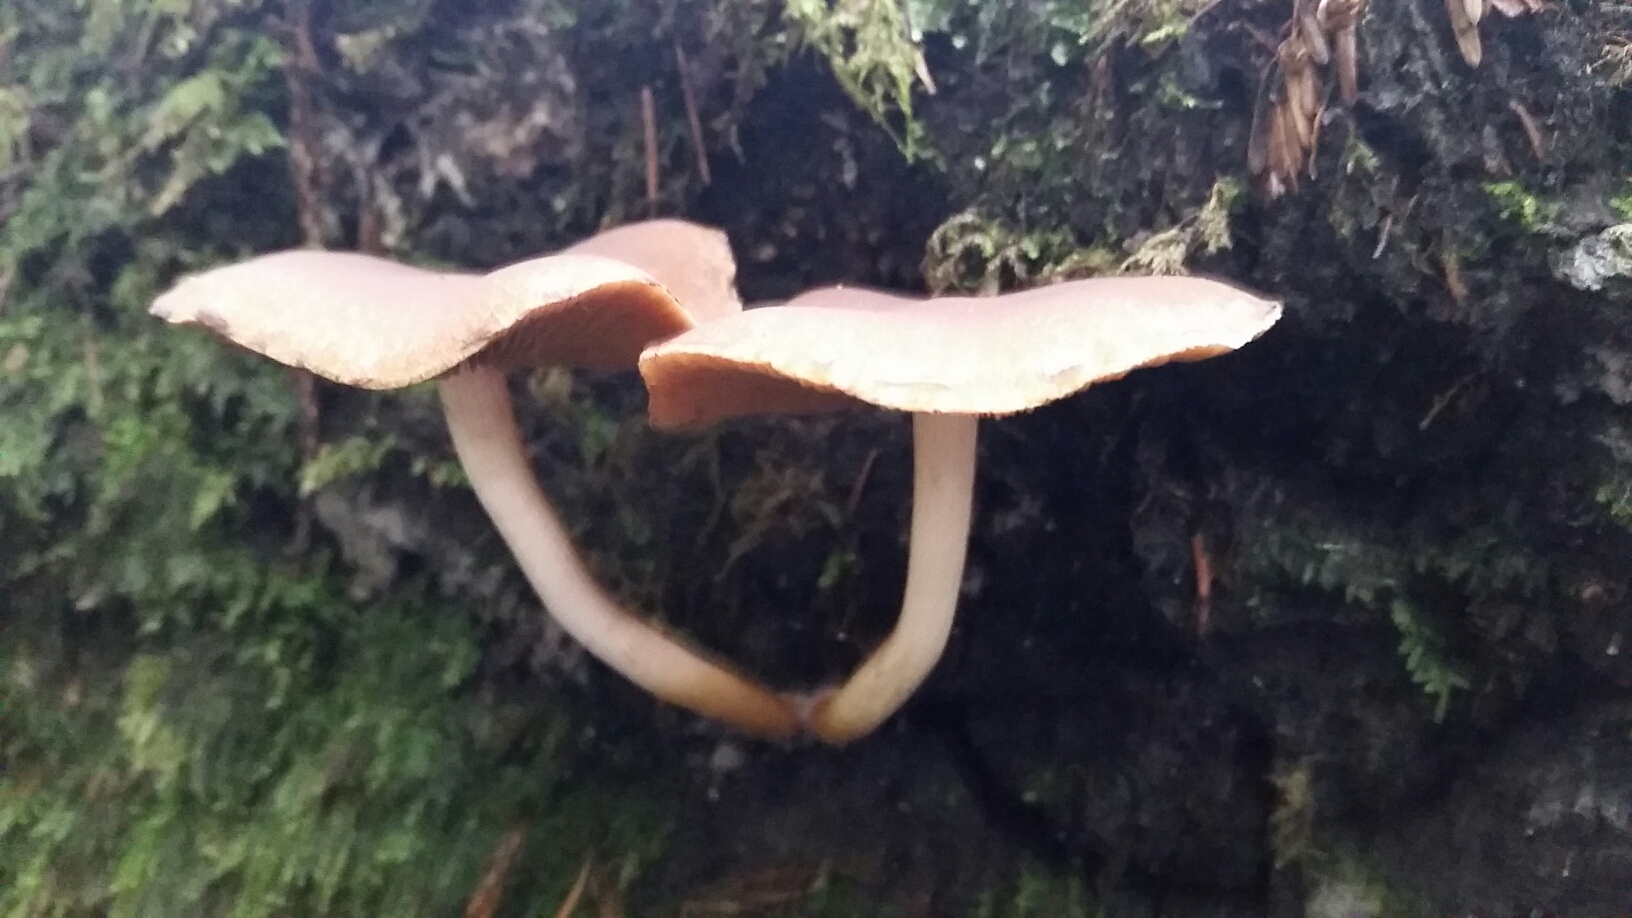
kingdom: Fungi
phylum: Basidiomycota
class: Agaricomycetes
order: Agaricales
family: Psathyrellaceae
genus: Psathyrella
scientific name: Psathyrella piluliformis
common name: Common stump brittlestem
